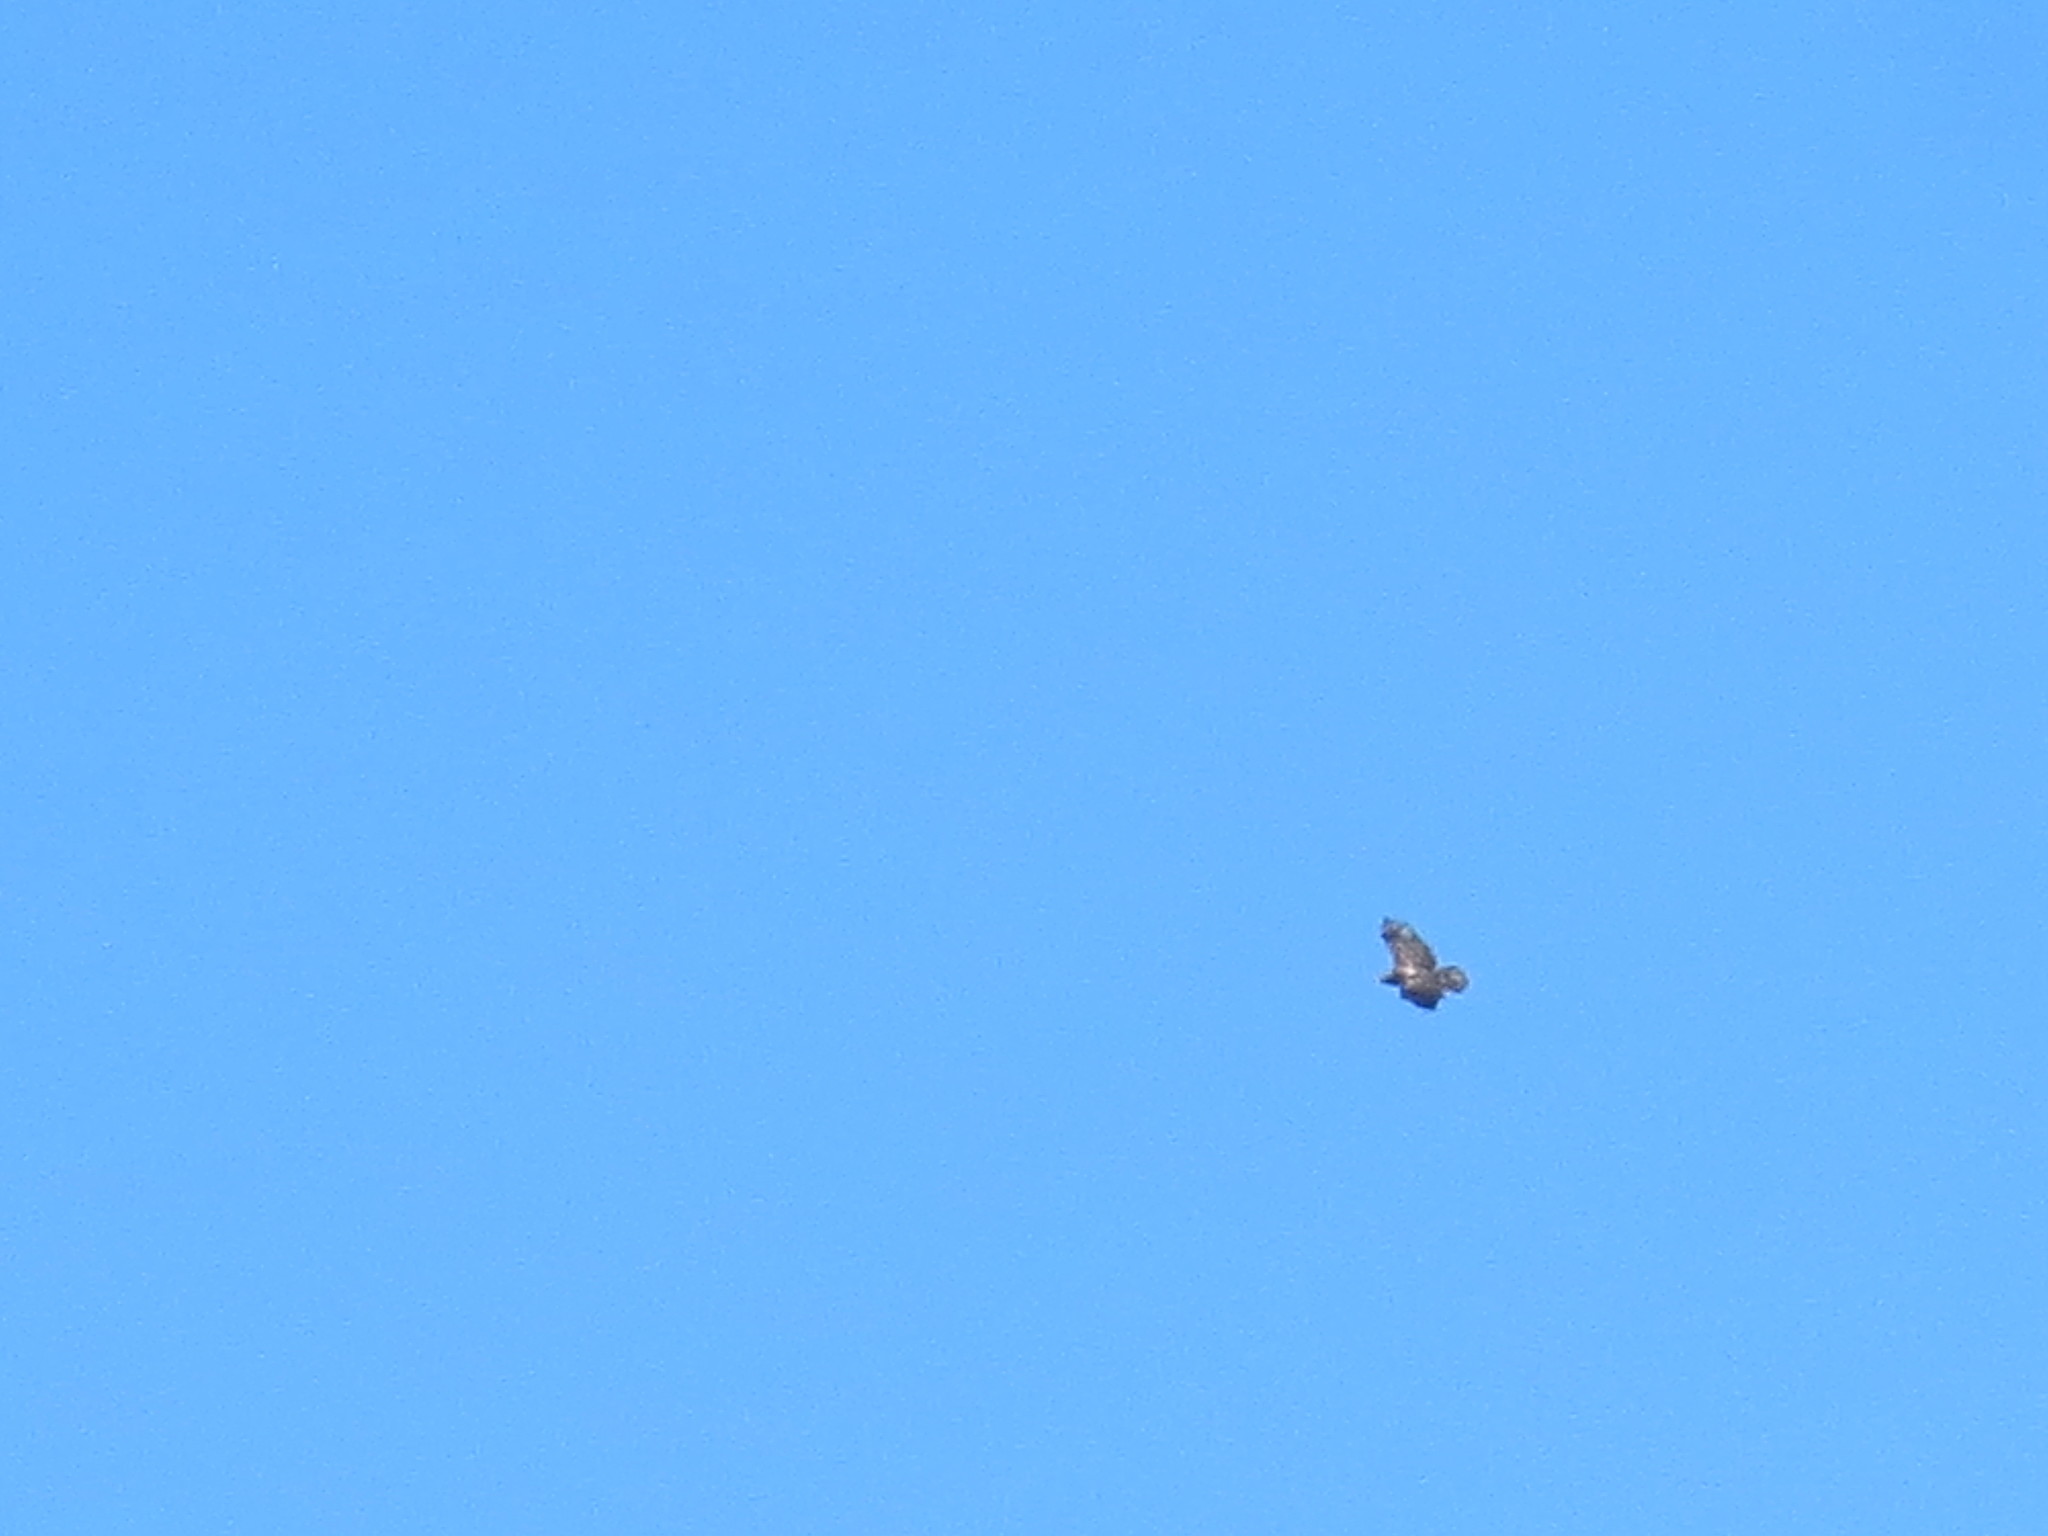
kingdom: Animalia
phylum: Chordata
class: Aves
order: Accipitriformes
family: Accipitridae
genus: Haliaeetus
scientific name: Haliaeetus leucocephalus
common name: Bald eagle
